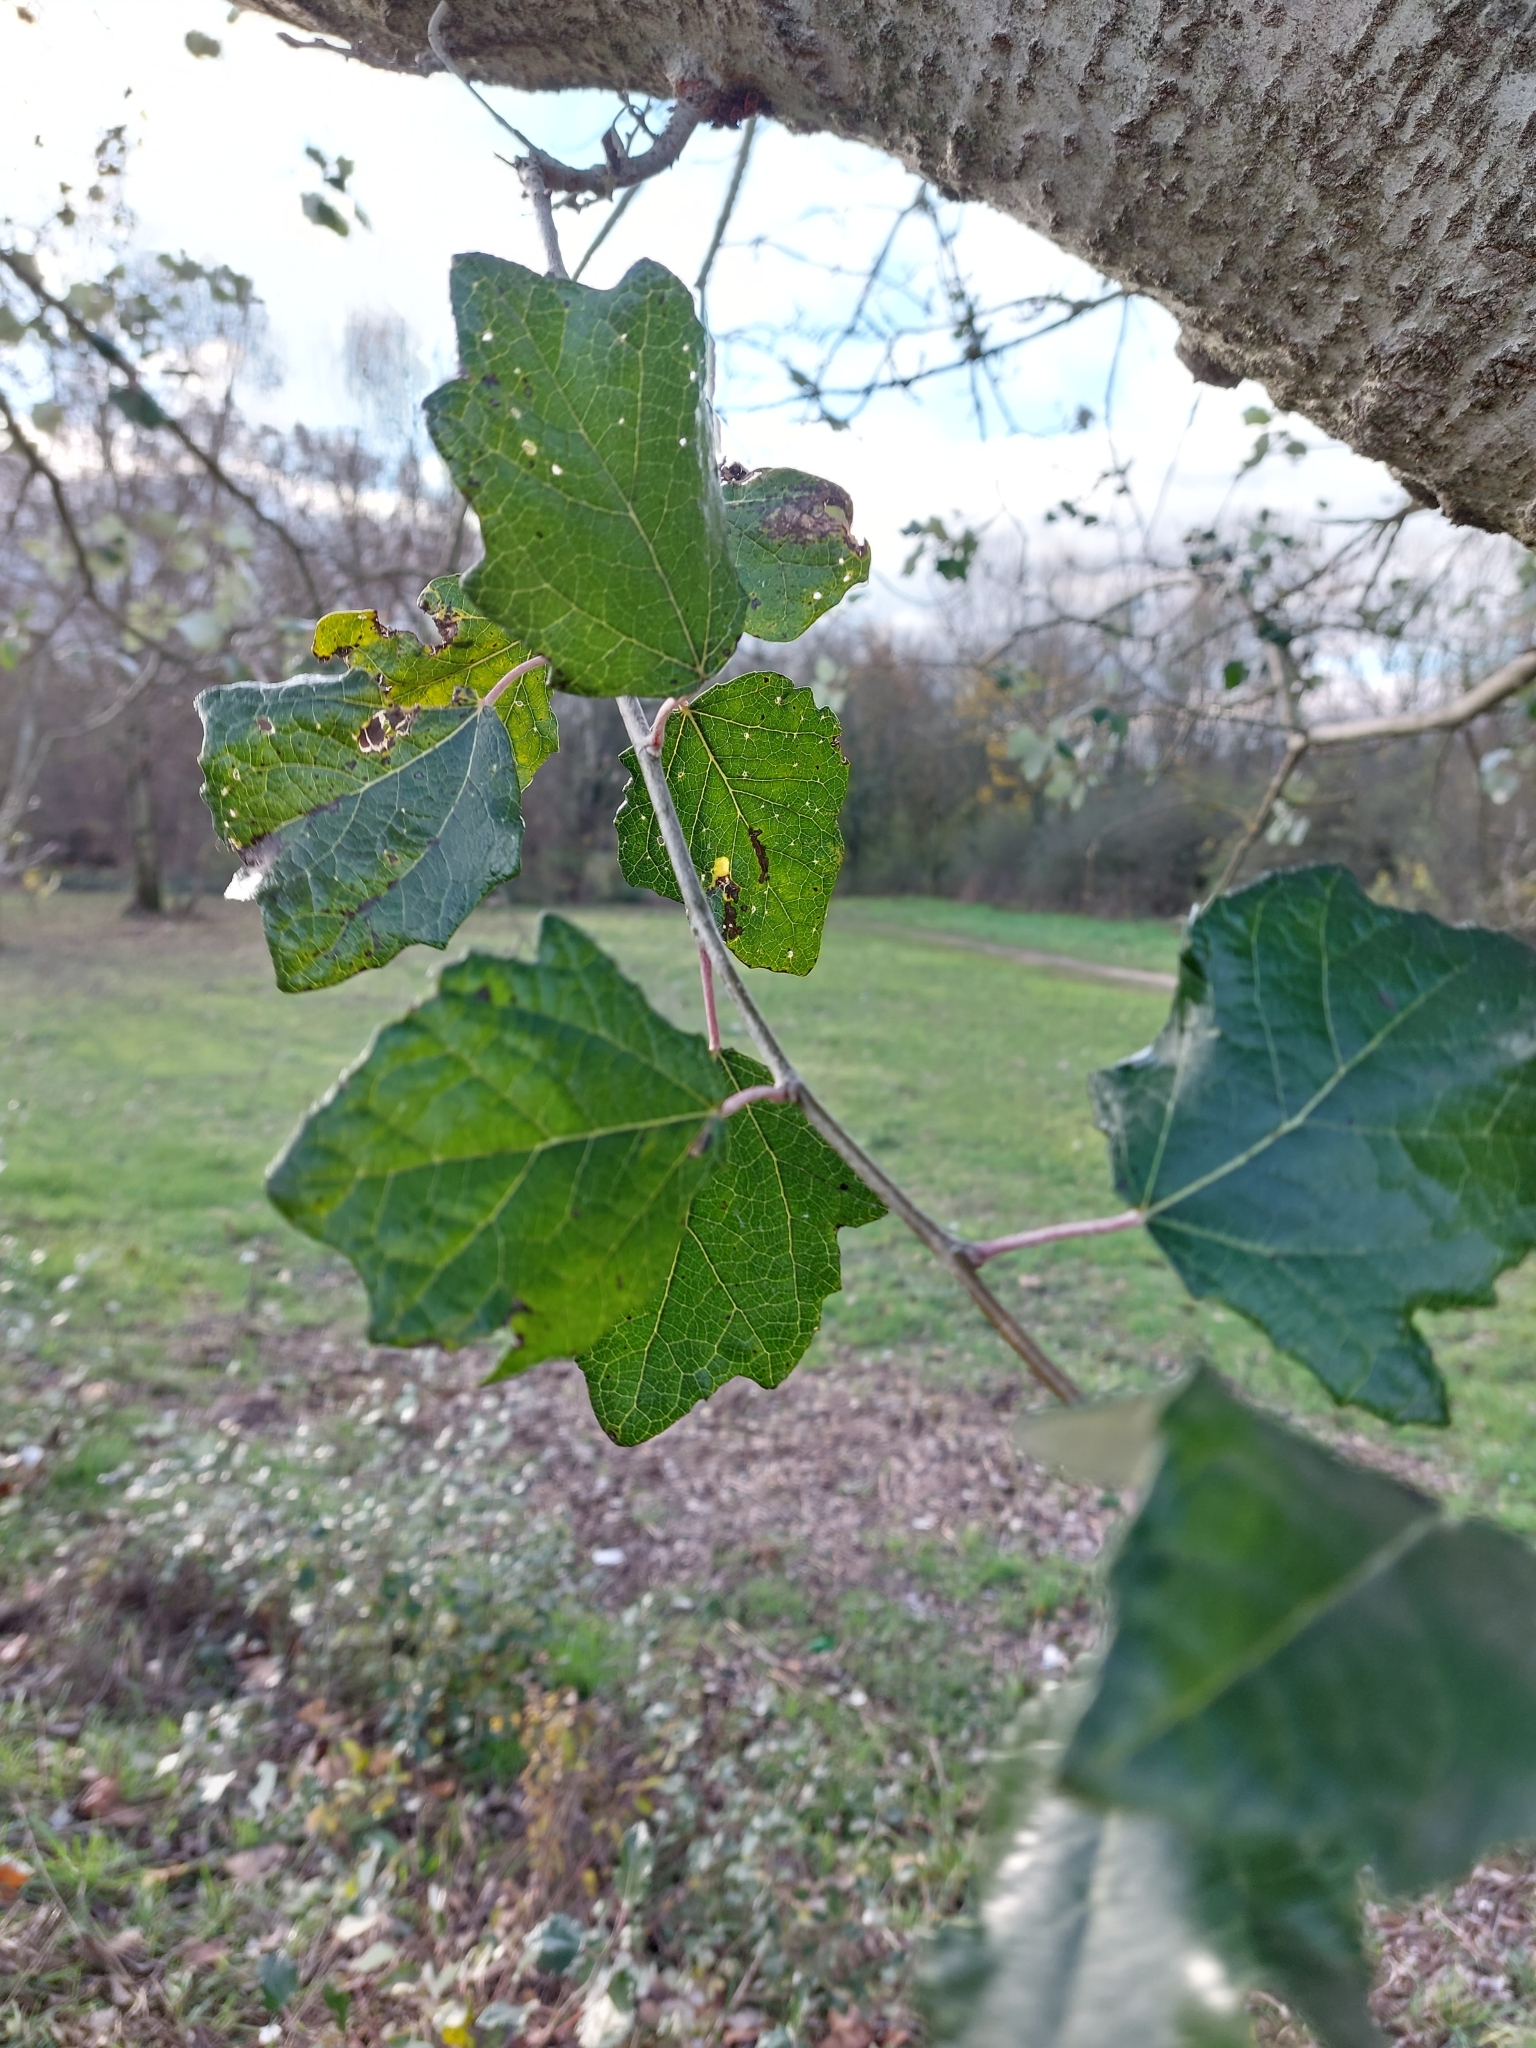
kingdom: Plantae
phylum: Tracheophyta
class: Magnoliopsida
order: Malpighiales
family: Salicaceae
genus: Populus
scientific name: Populus alba
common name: White poplar
